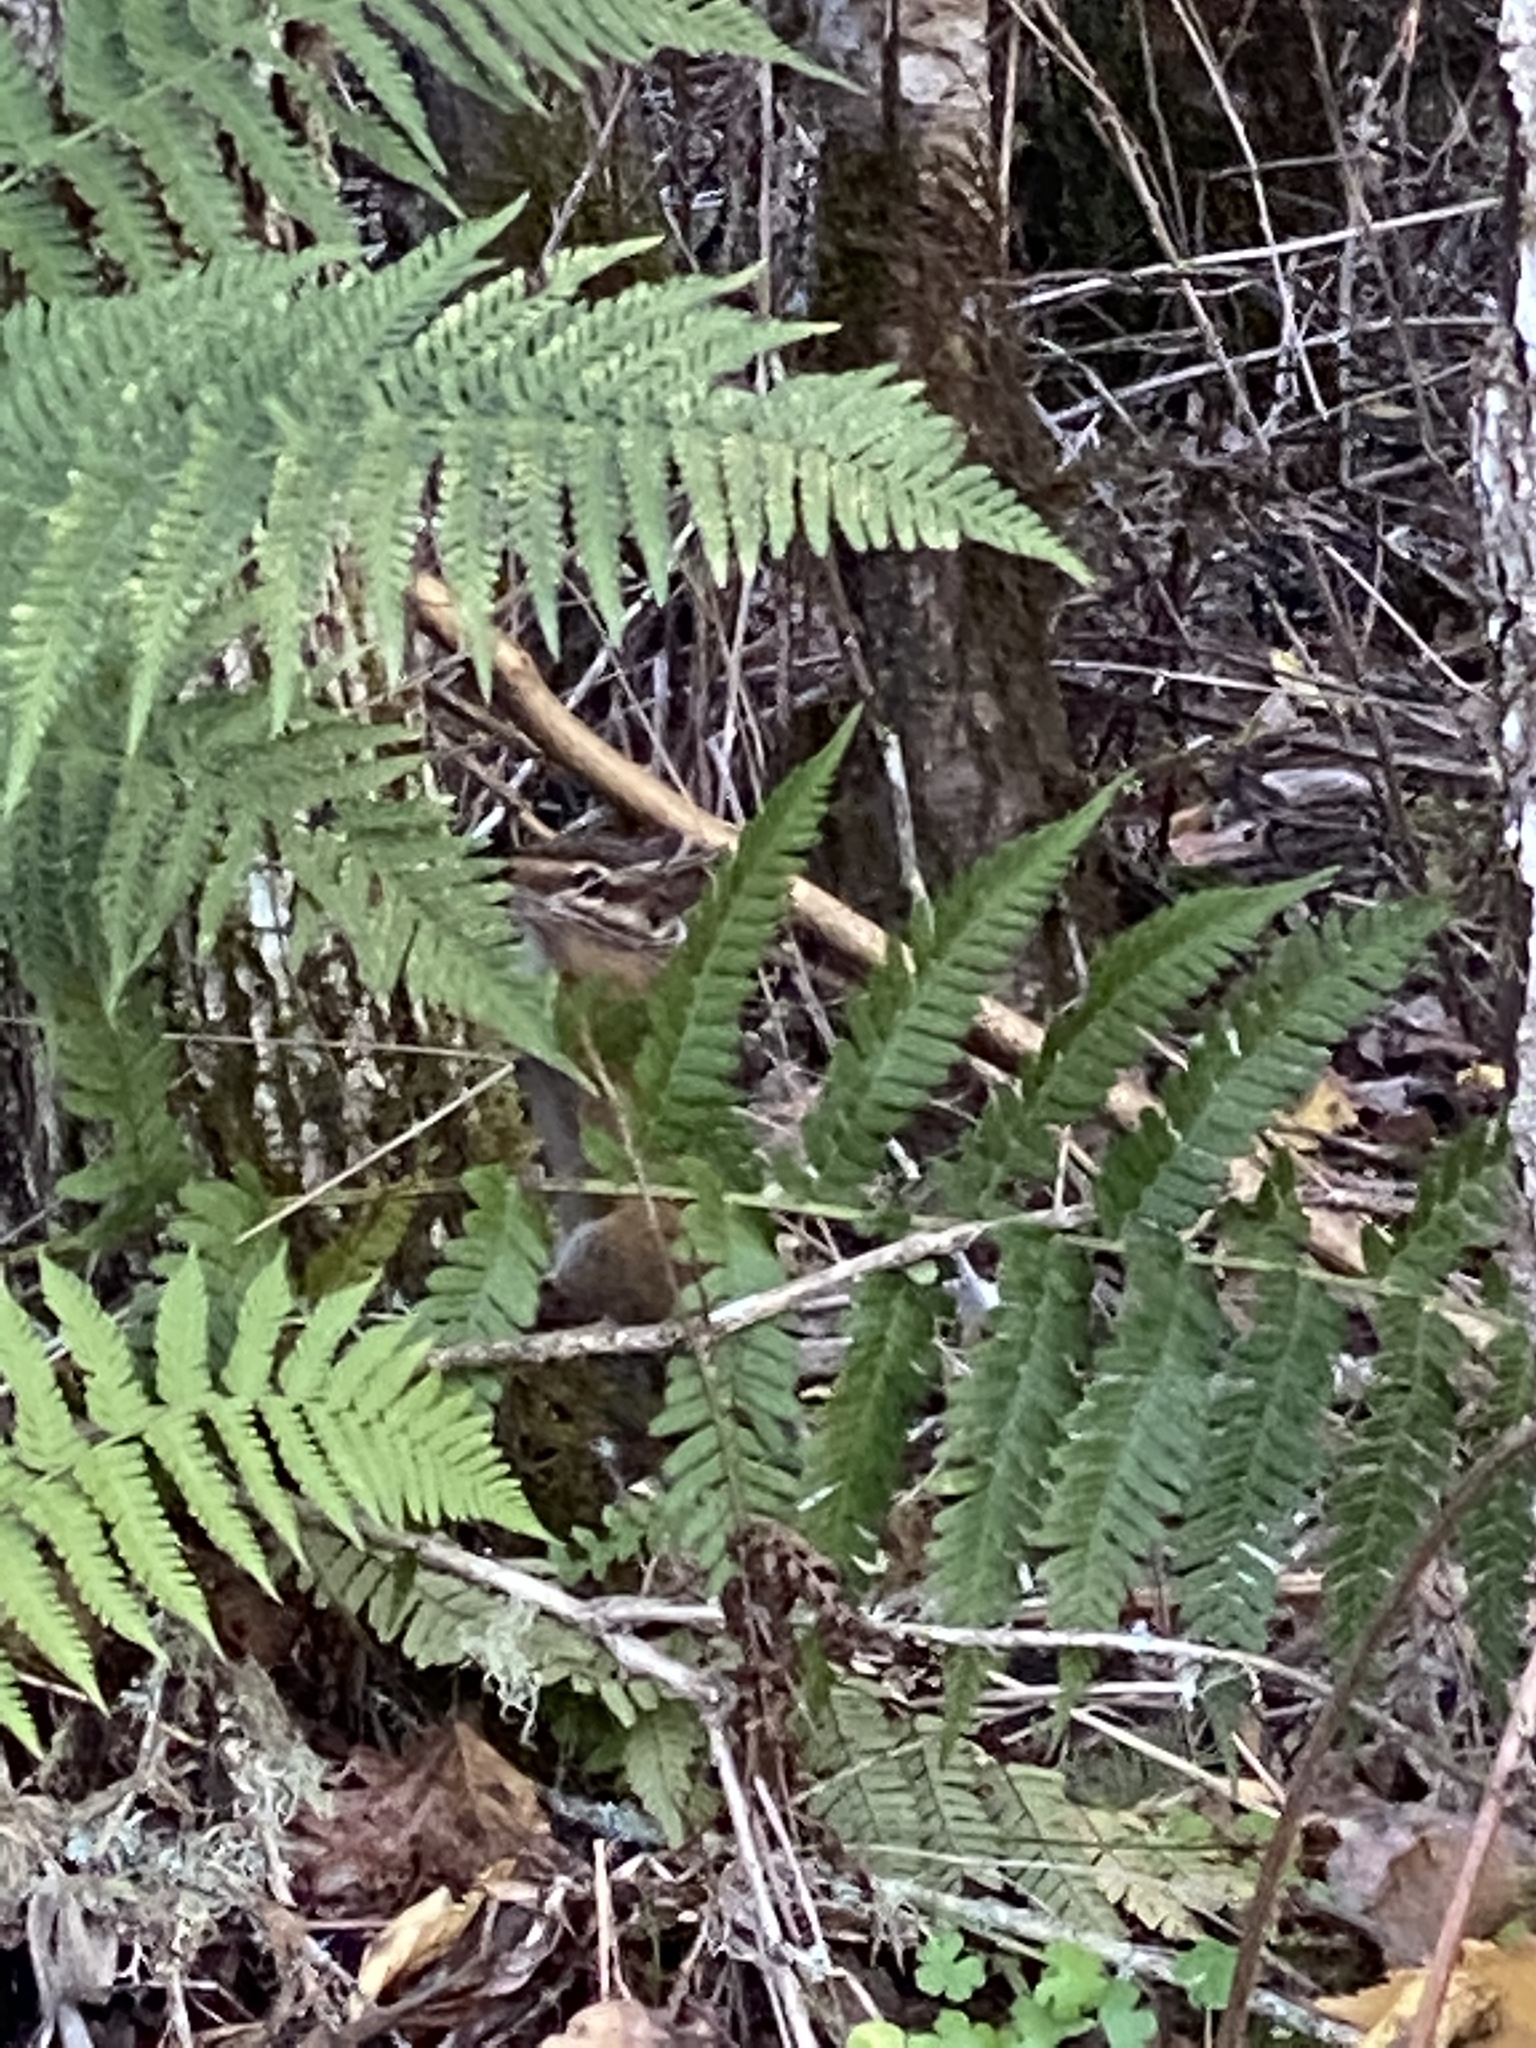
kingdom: Animalia
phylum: Chordata
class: Mammalia
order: Rodentia
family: Sciuridae
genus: Tamias
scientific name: Tamias townsendii
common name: Townsend's chipmunk
